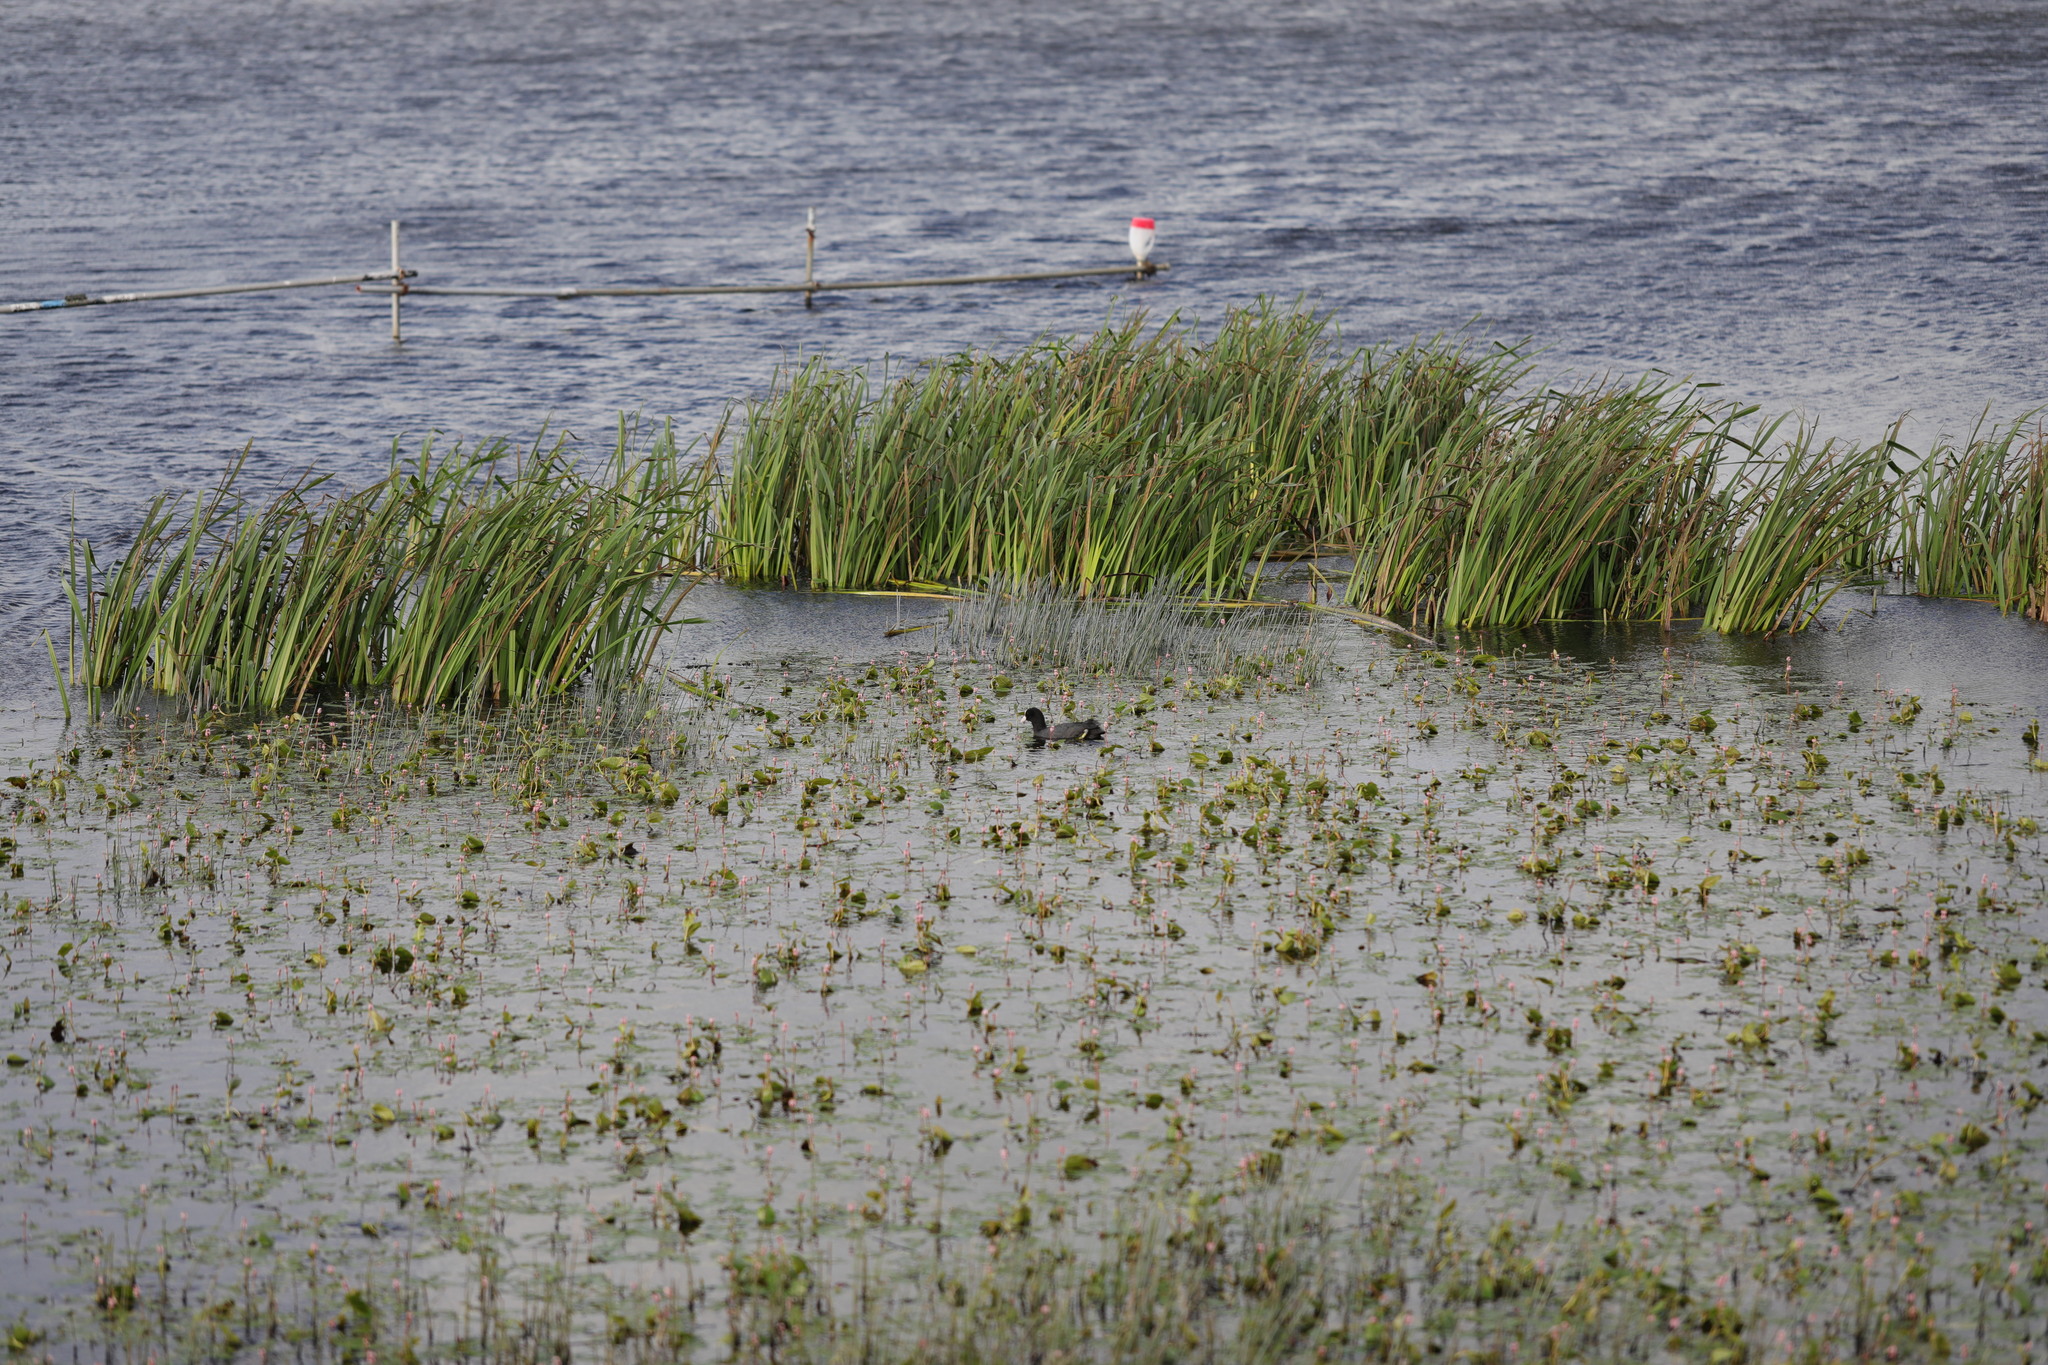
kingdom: Animalia
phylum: Chordata
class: Aves
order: Gruiformes
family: Rallidae
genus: Fulica
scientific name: Fulica atra
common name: Eurasian coot
